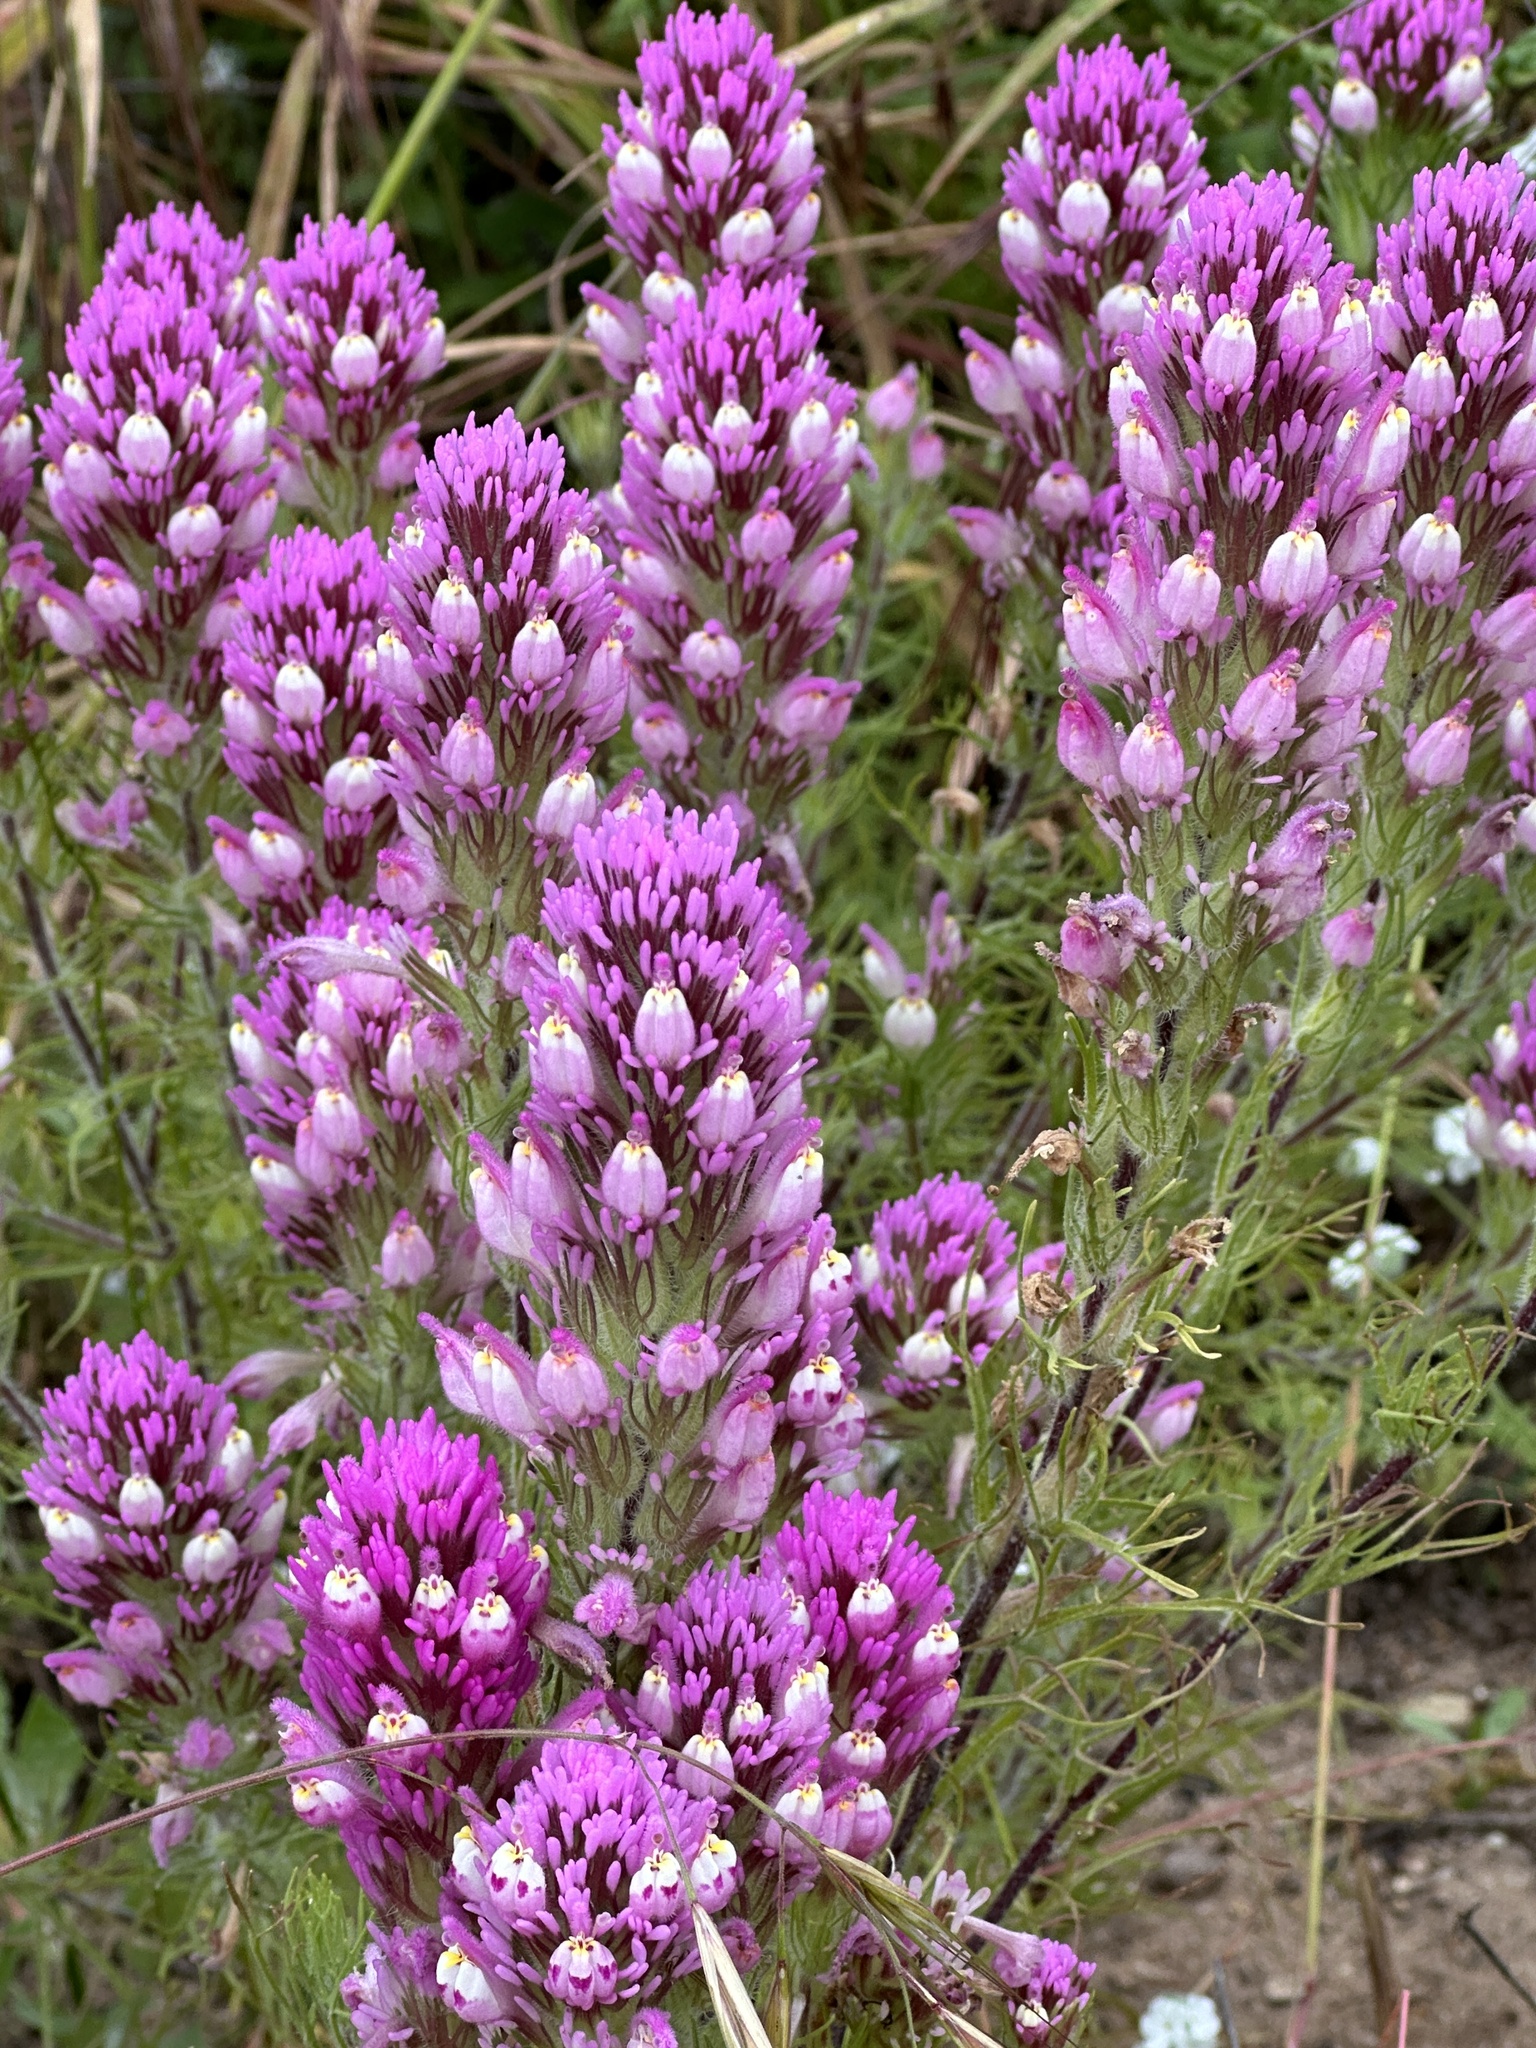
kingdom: Plantae
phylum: Tracheophyta
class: Magnoliopsida
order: Lamiales
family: Orobanchaceae
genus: Castilleja
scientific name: Castilleja exserta
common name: Purple owl-clover
